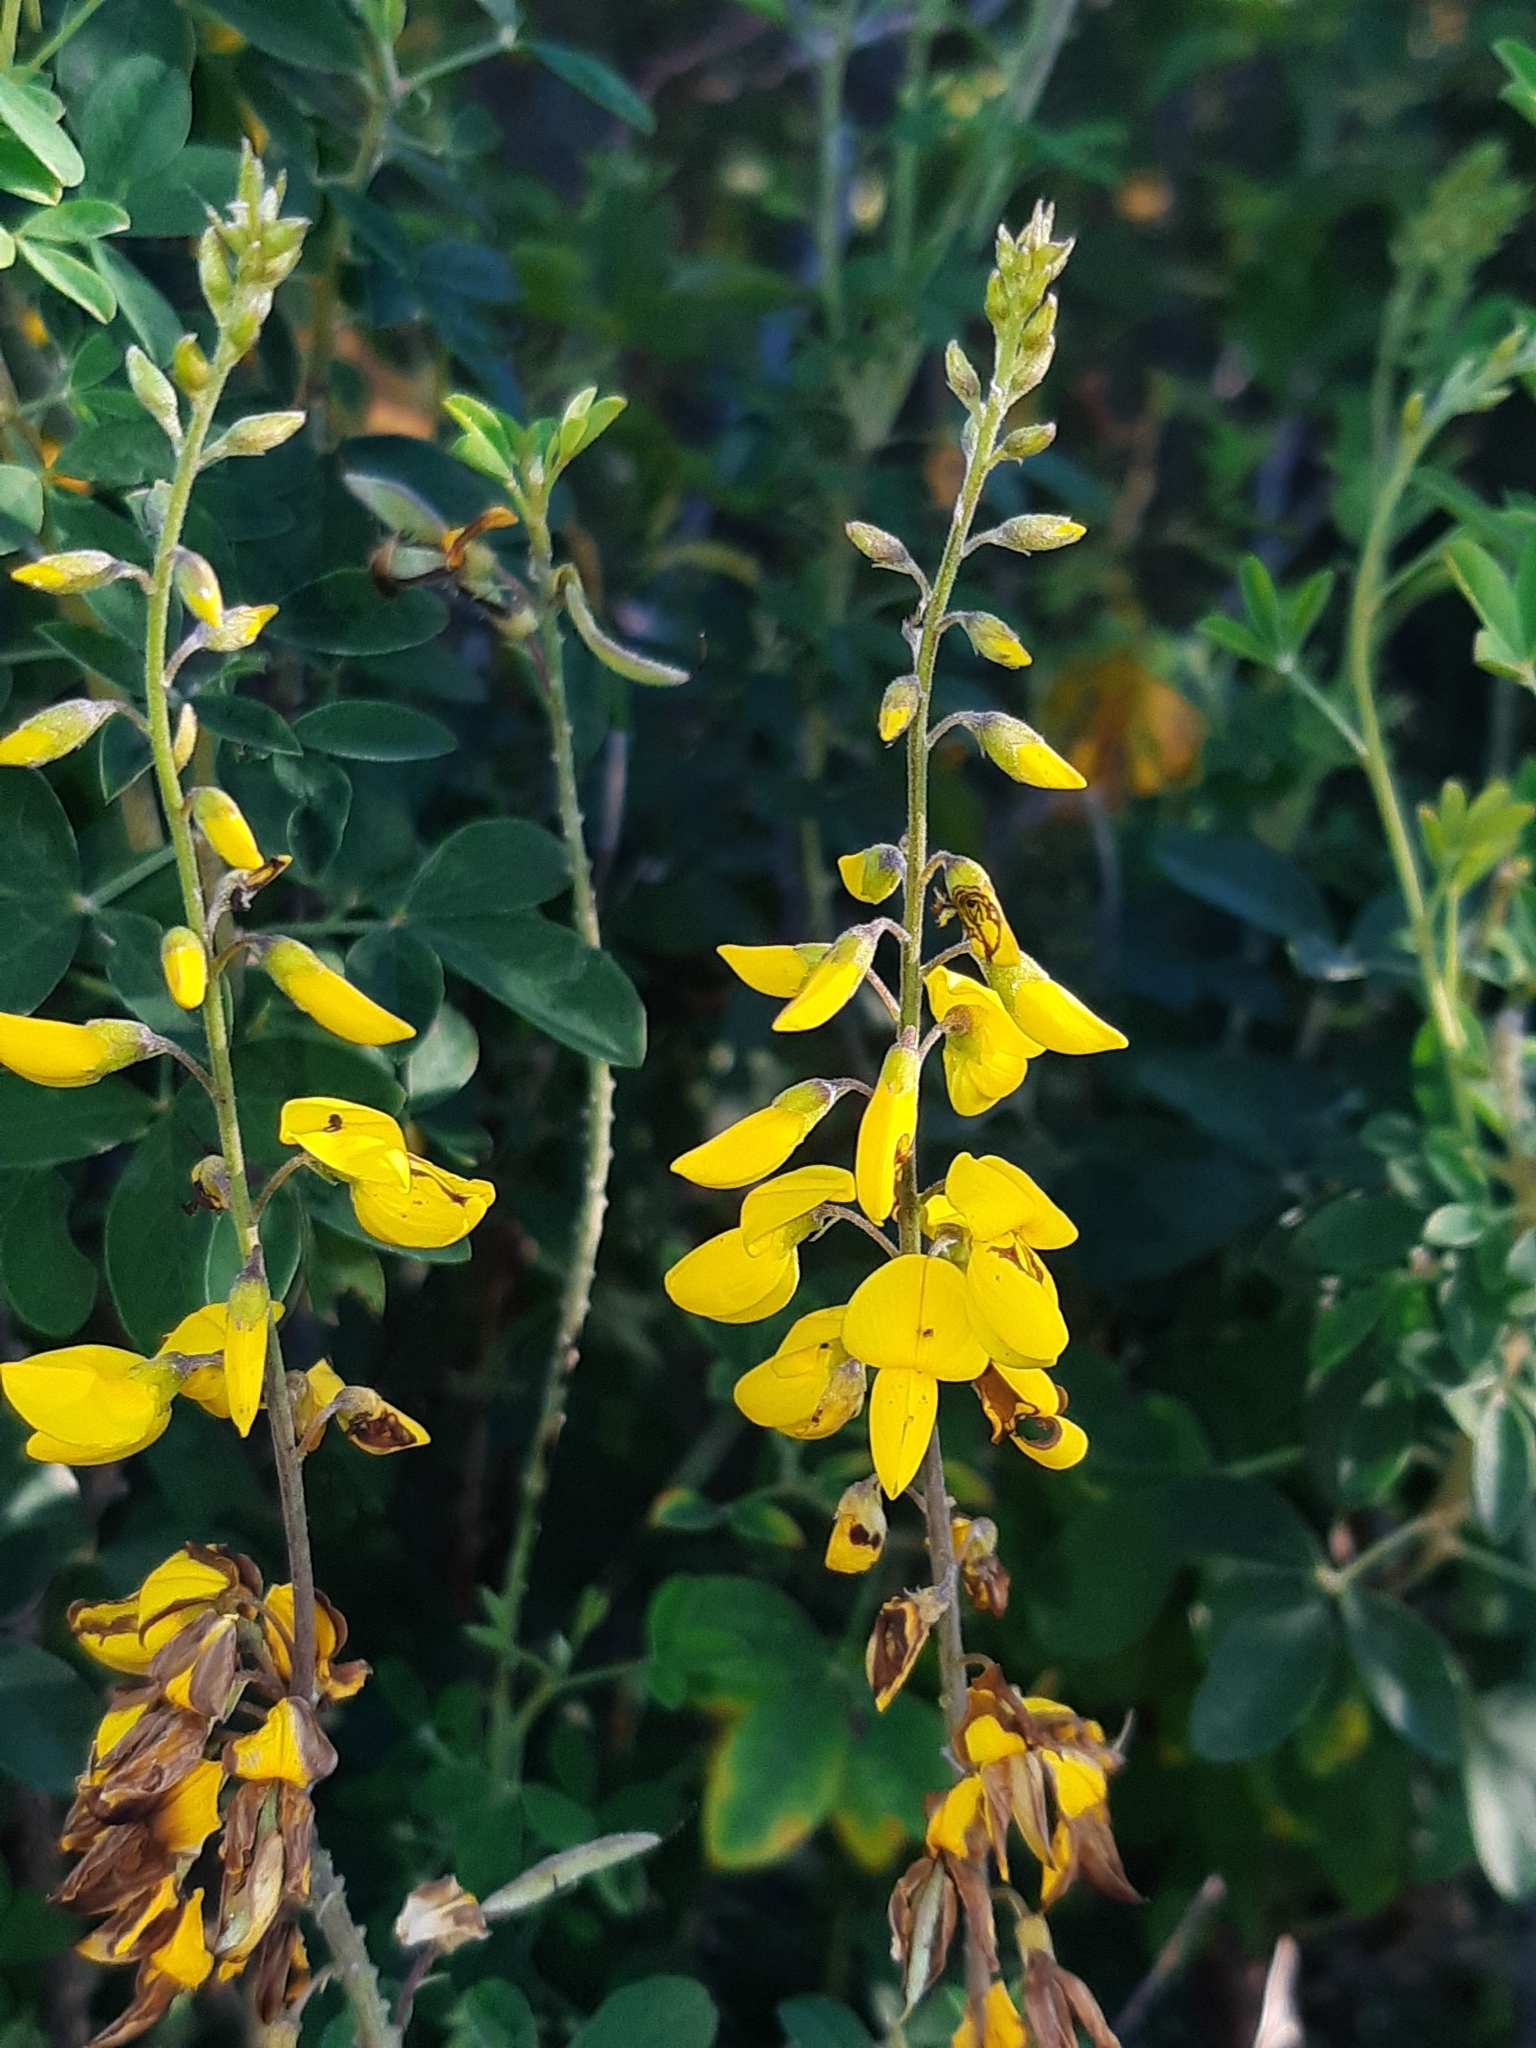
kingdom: Plantae
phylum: Tracheophyta
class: Magnoliopsida
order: Fabales
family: Fabaceae
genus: Cytisus
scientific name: Cytisus nigricans
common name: Black broom
